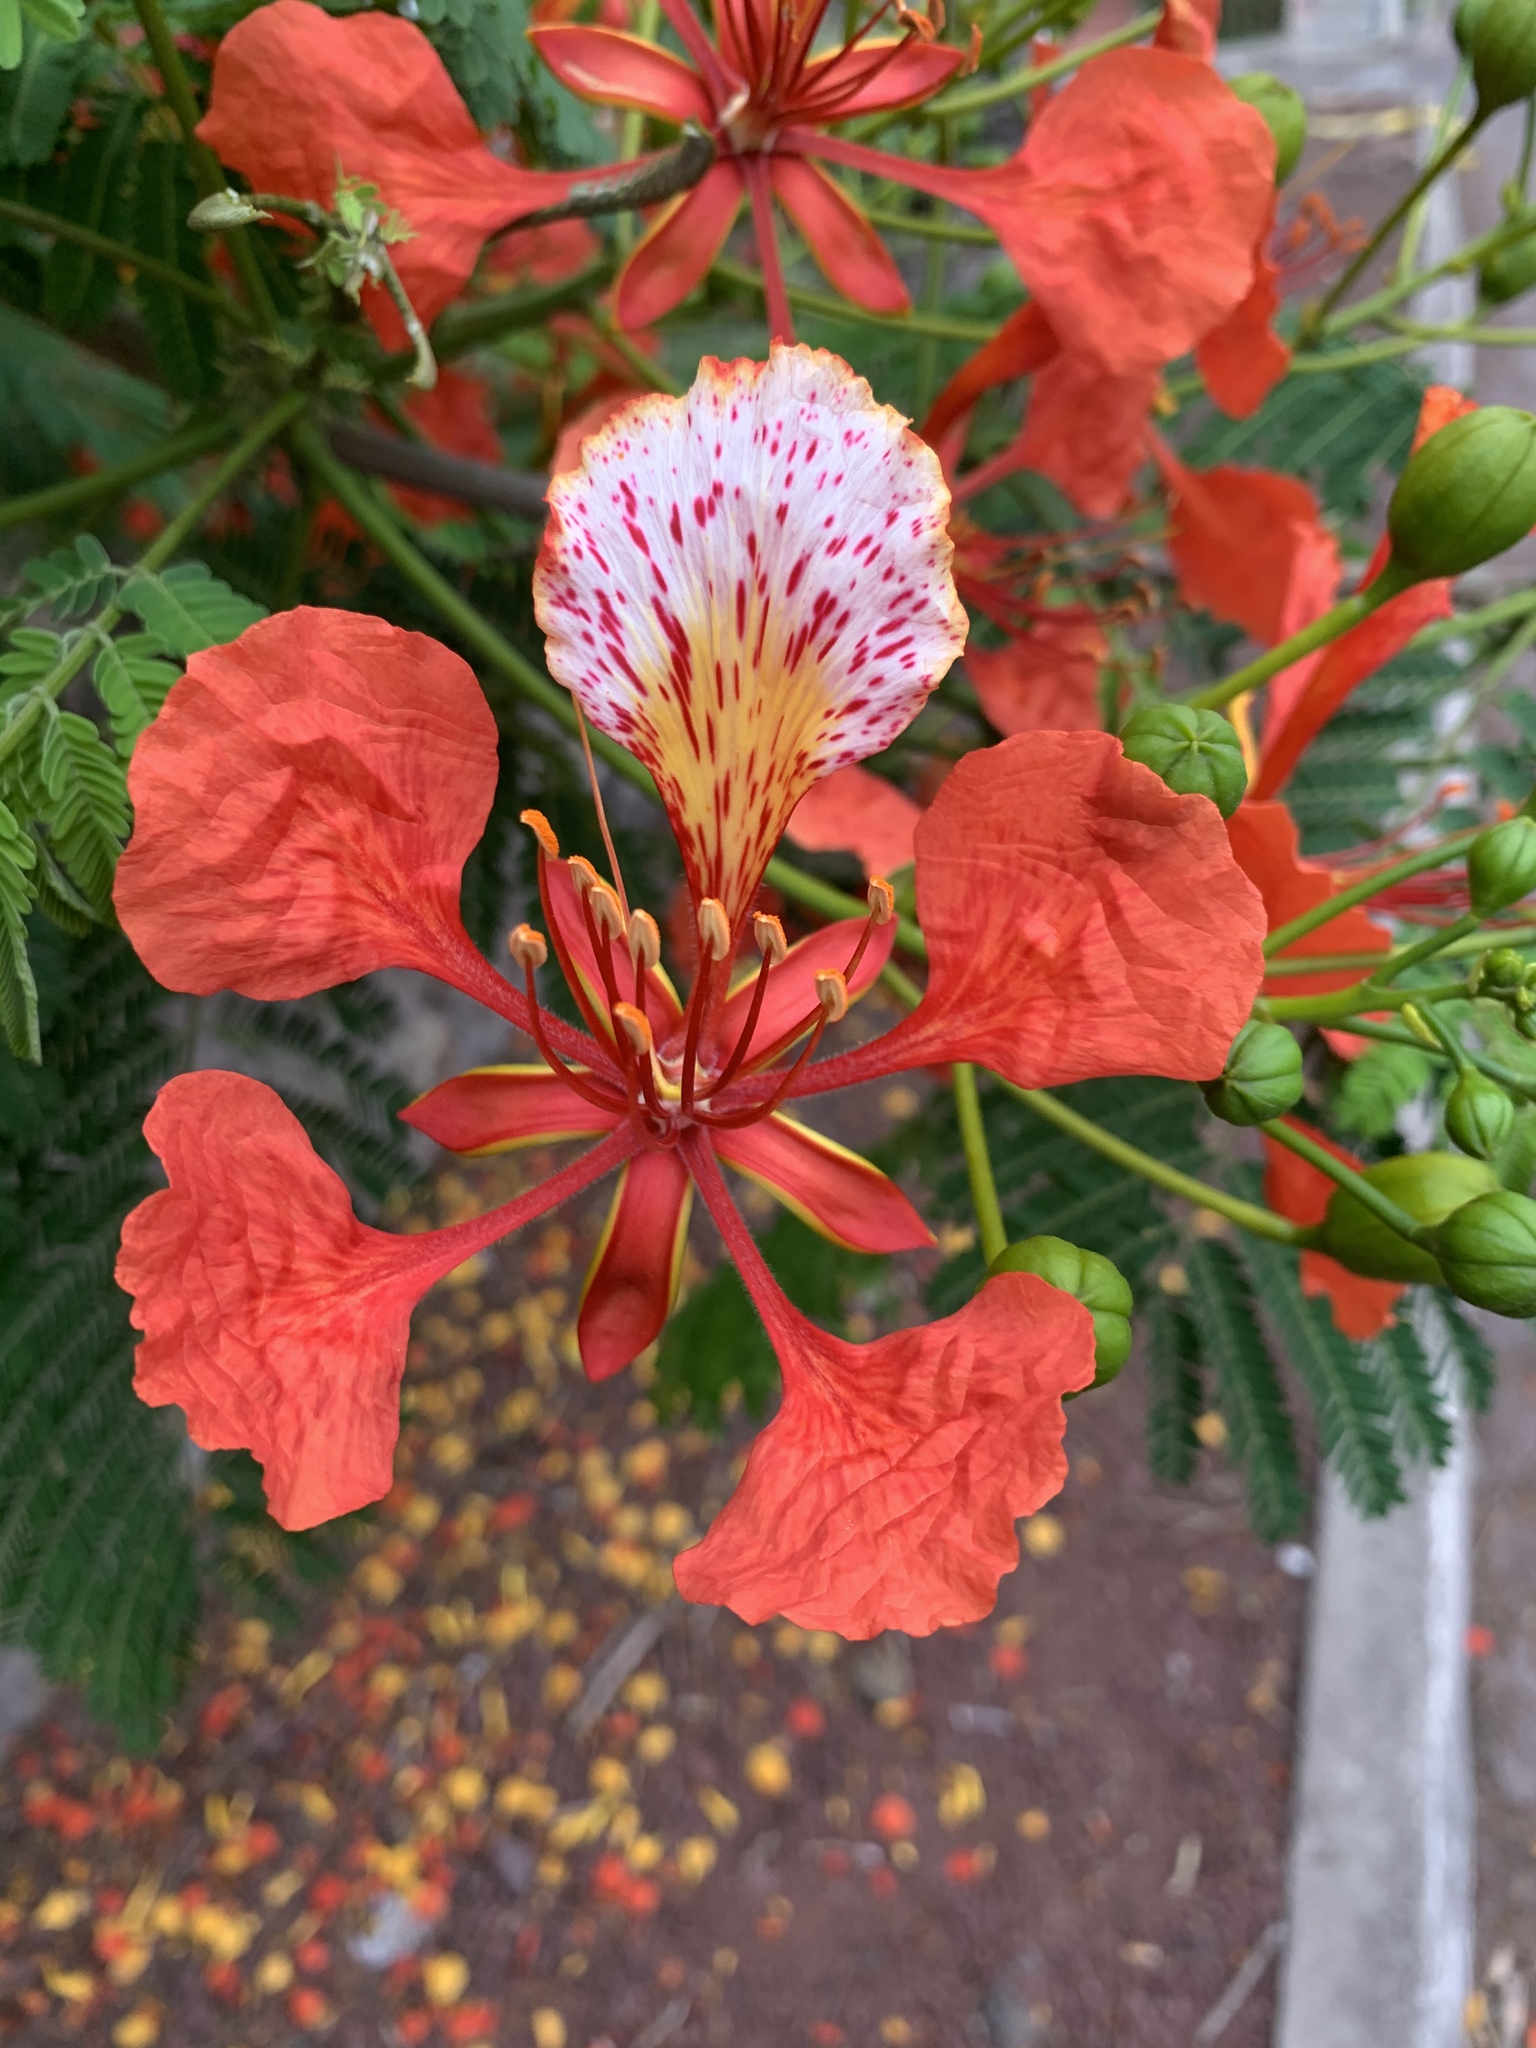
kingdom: Plantae
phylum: Tracheophyta
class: Magnoliopsida
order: Fabales
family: Fabaceae
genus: Delonix
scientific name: Delonix regia
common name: Royal poinciana
